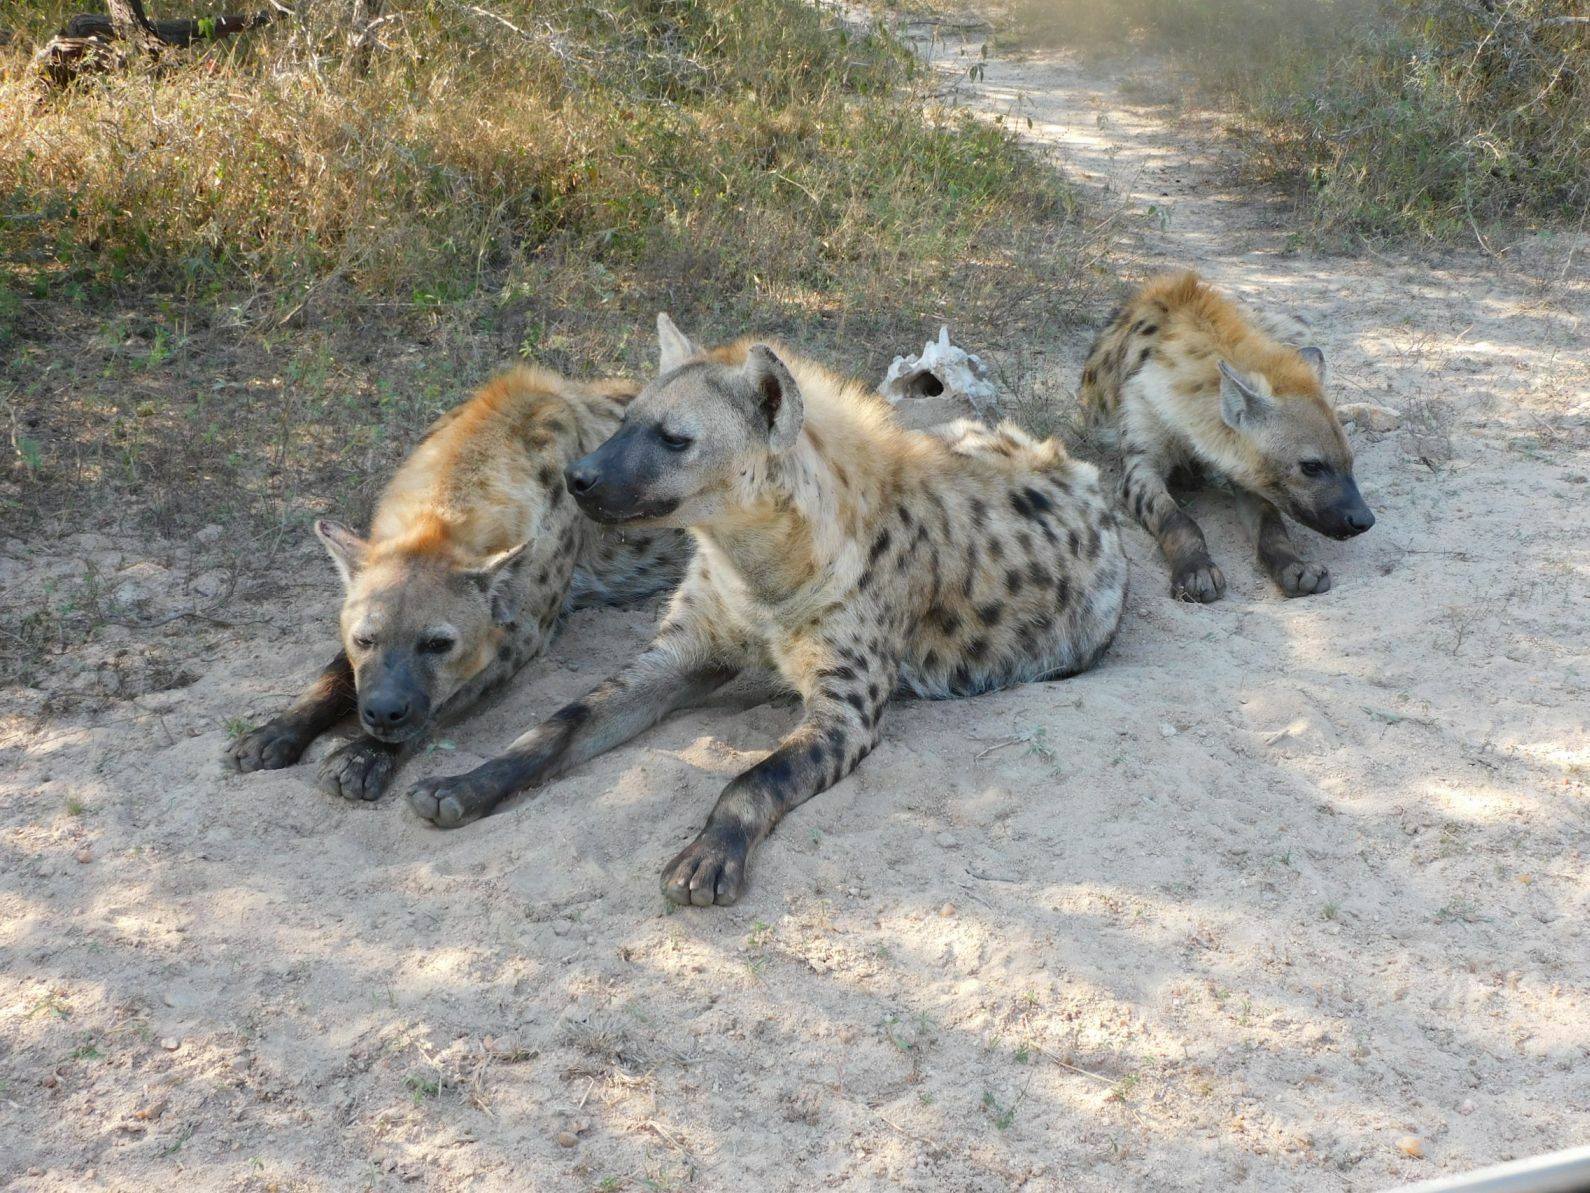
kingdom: Animalia
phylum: Chordata
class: Mammalia
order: Carnivora
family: Hyaenidae
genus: Crocuta
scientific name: Crocuta crocuta
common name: Spotted hyaena
